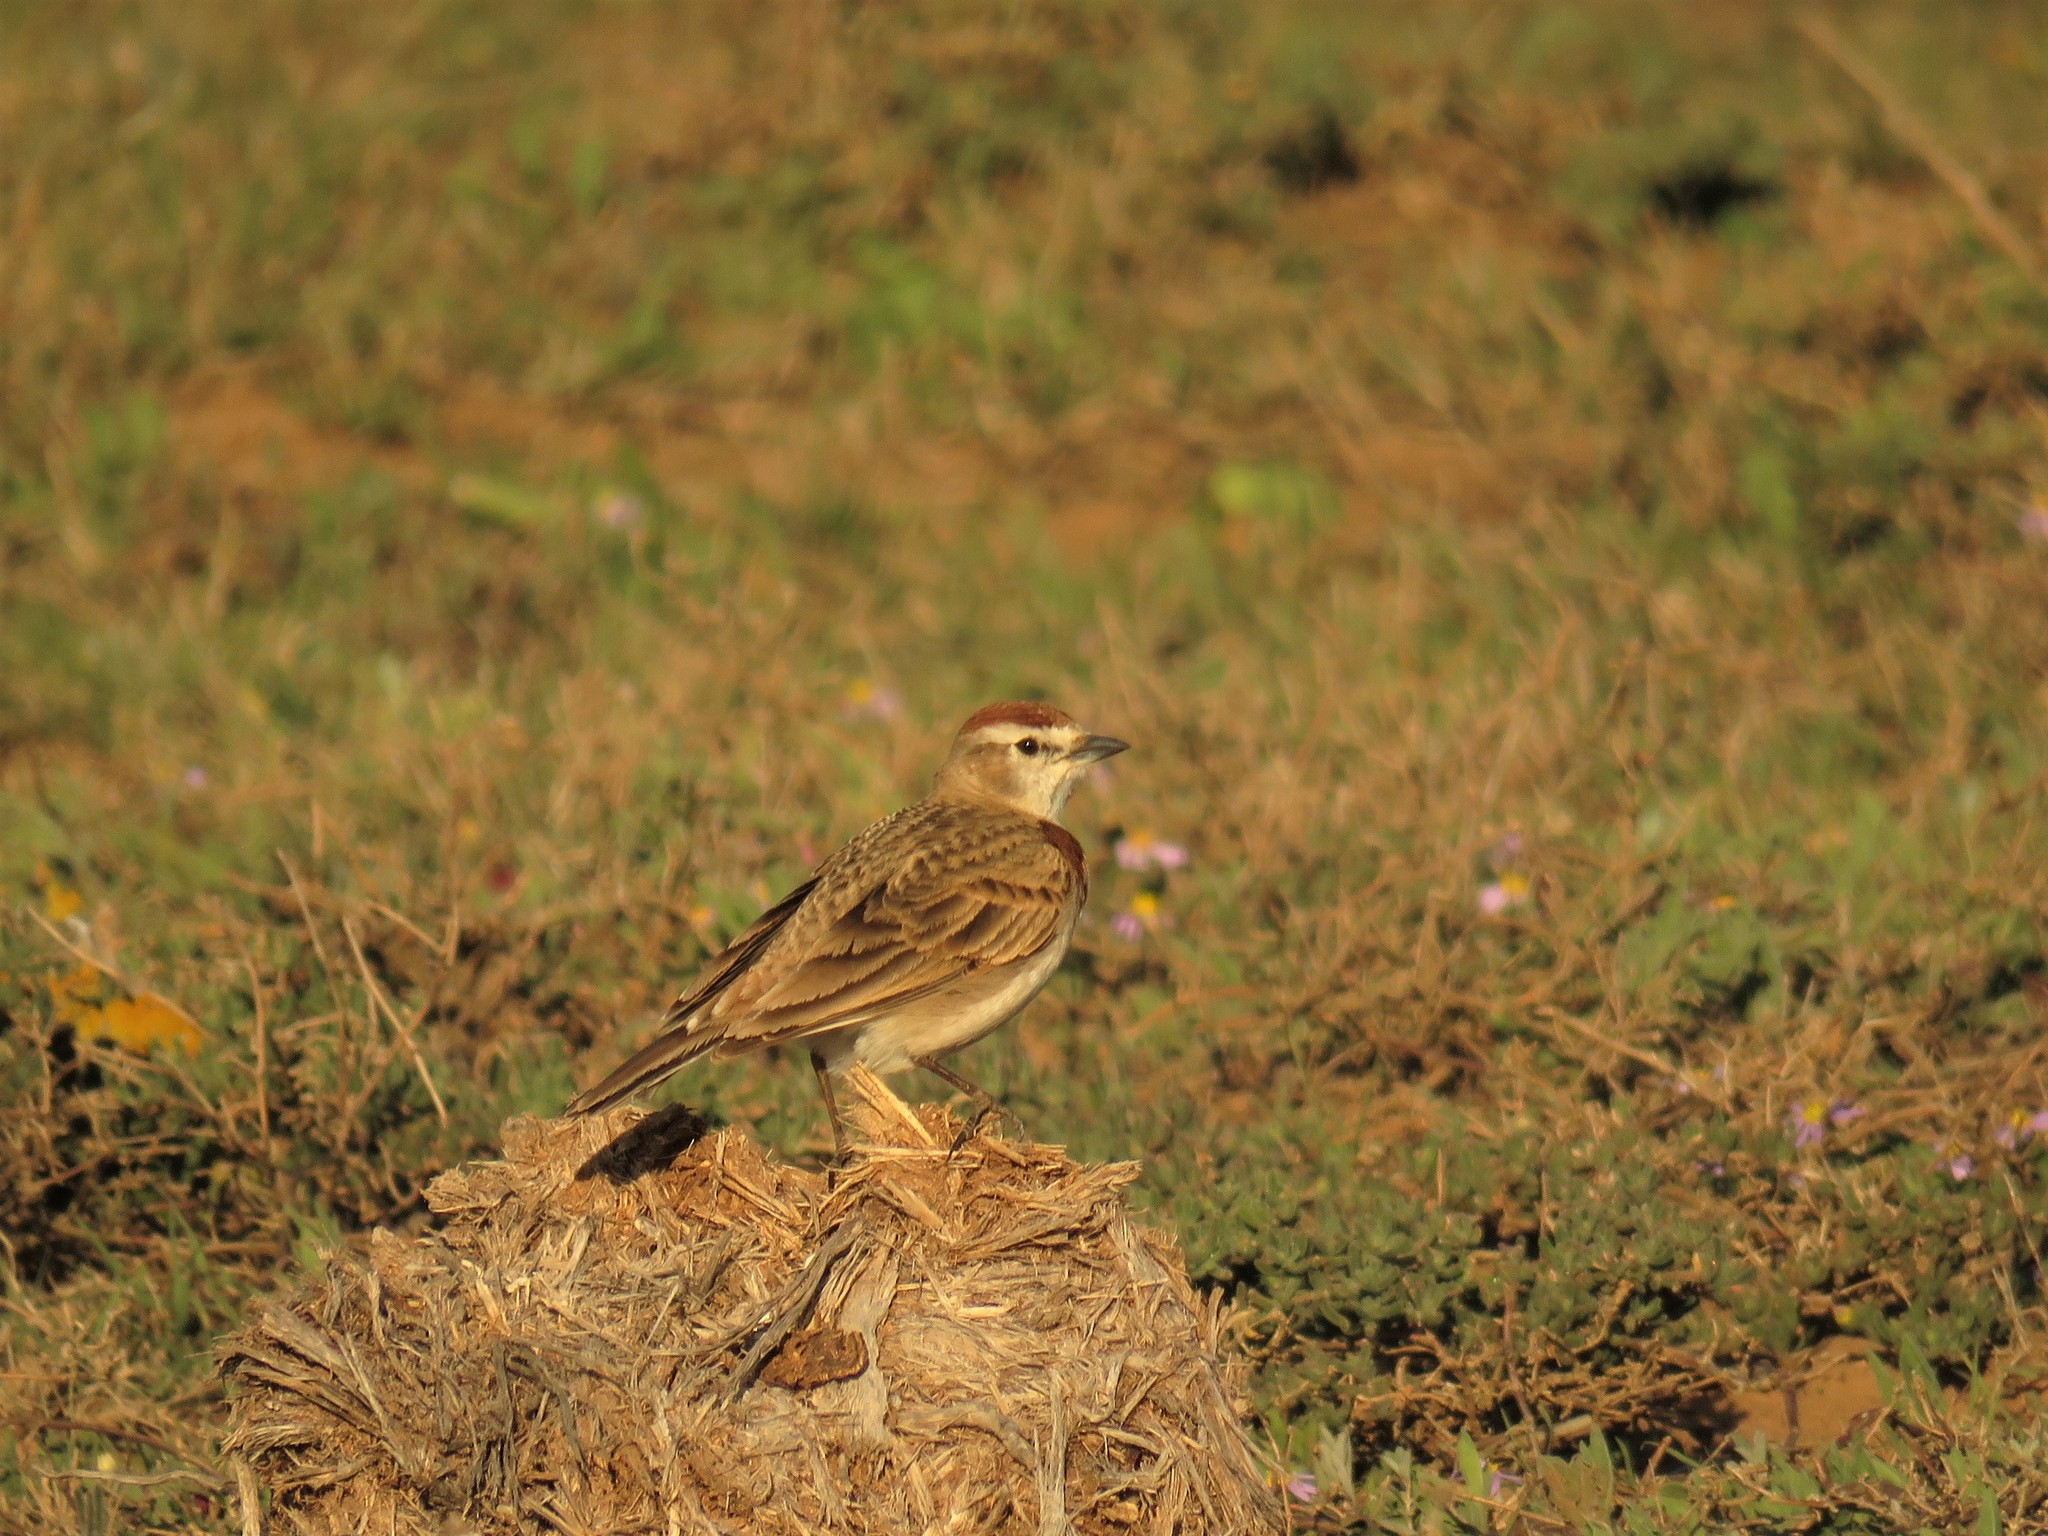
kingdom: Animalia
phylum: Chordata
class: Aves
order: Passeriformes
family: Alaudidae
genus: Calandrella
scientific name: Calandrella cinerea
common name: Red-capped lark
